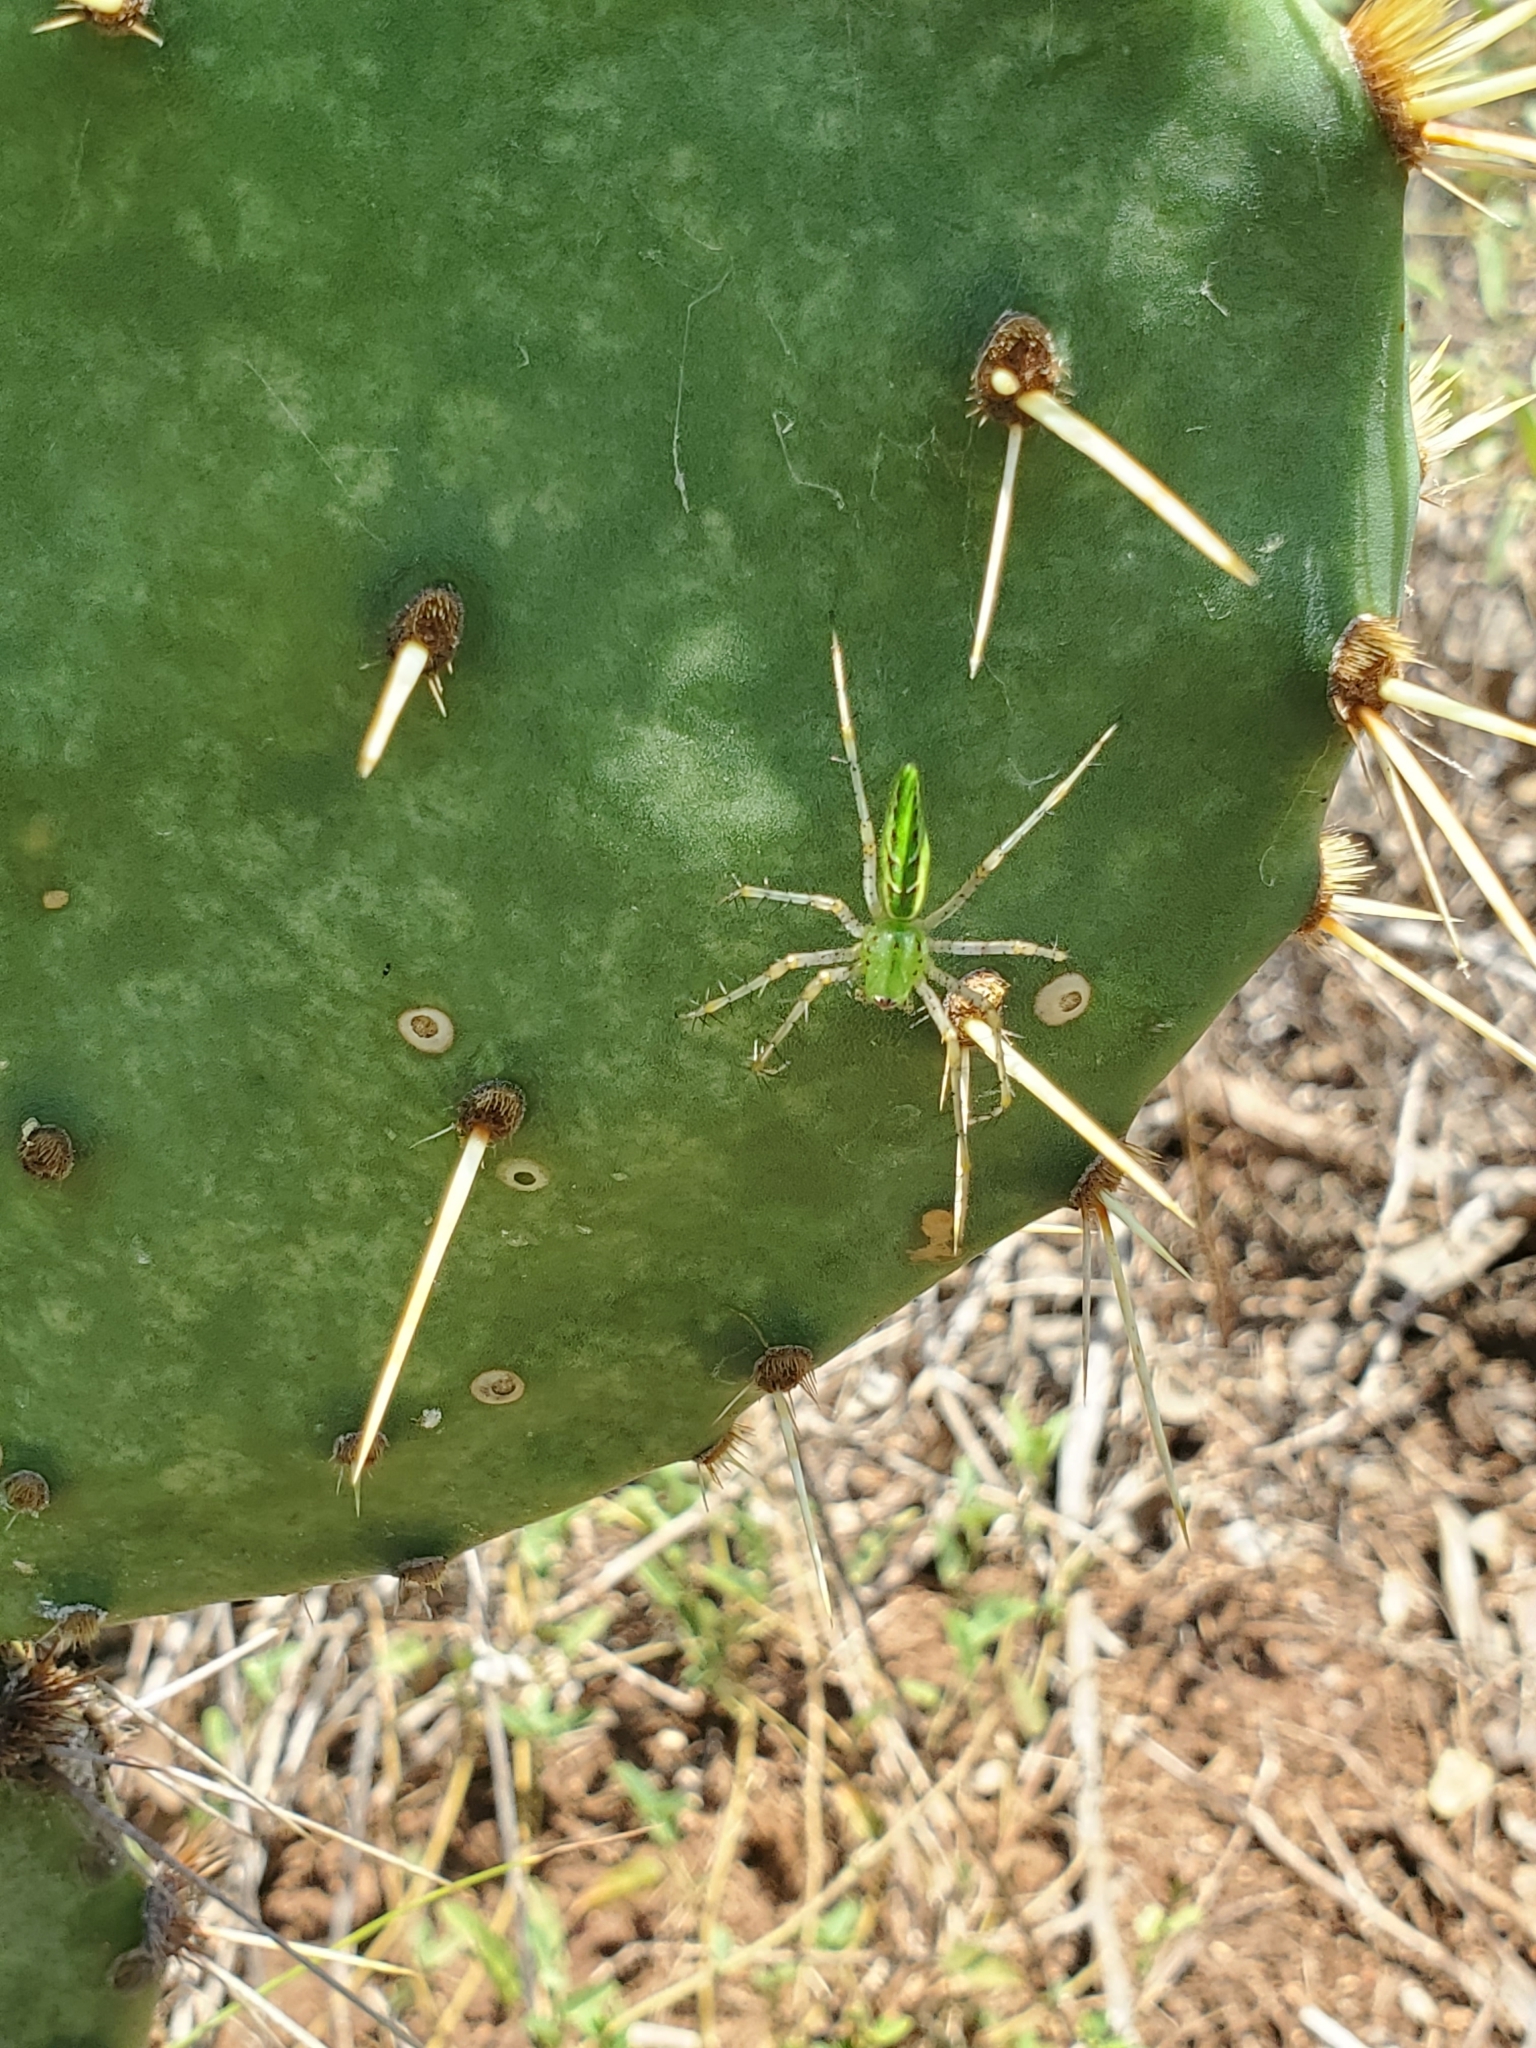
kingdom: Animalia
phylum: Arthropoda
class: Arachnida
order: Araneae
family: Oxyopidae
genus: Peucetia
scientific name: Peucetia viridans
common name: Lynx spiders
